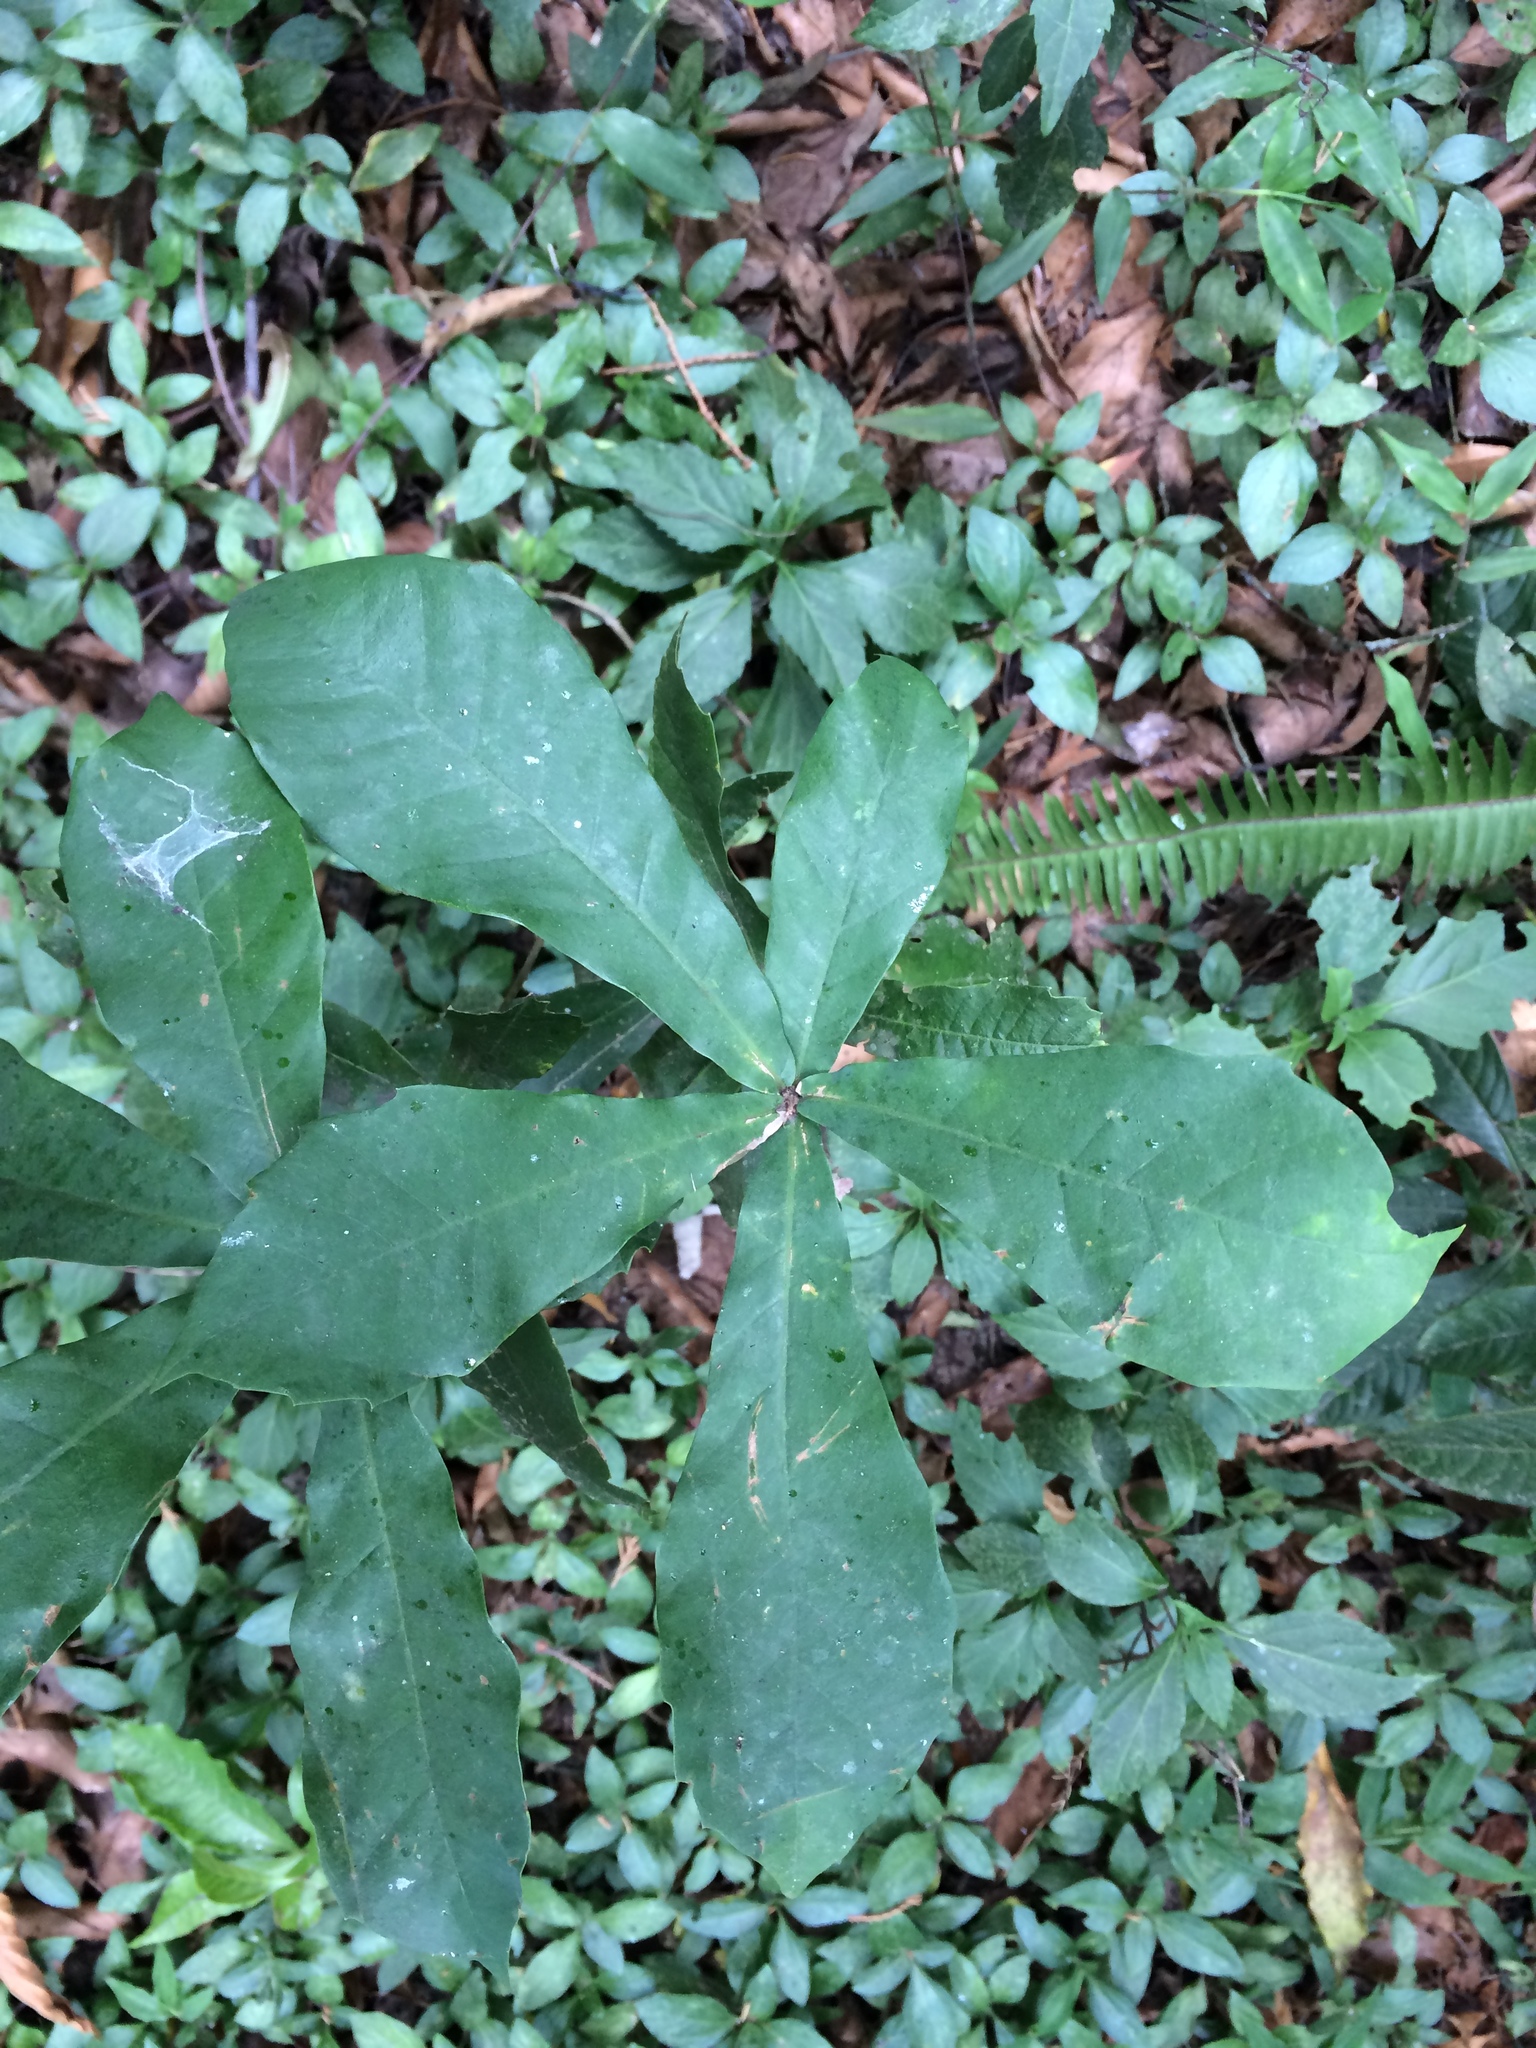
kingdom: Plantae
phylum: Tracheophyta
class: Magnoliopsida
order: Fagales
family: Fagaceae
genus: Quercus
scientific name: Quercus germana
